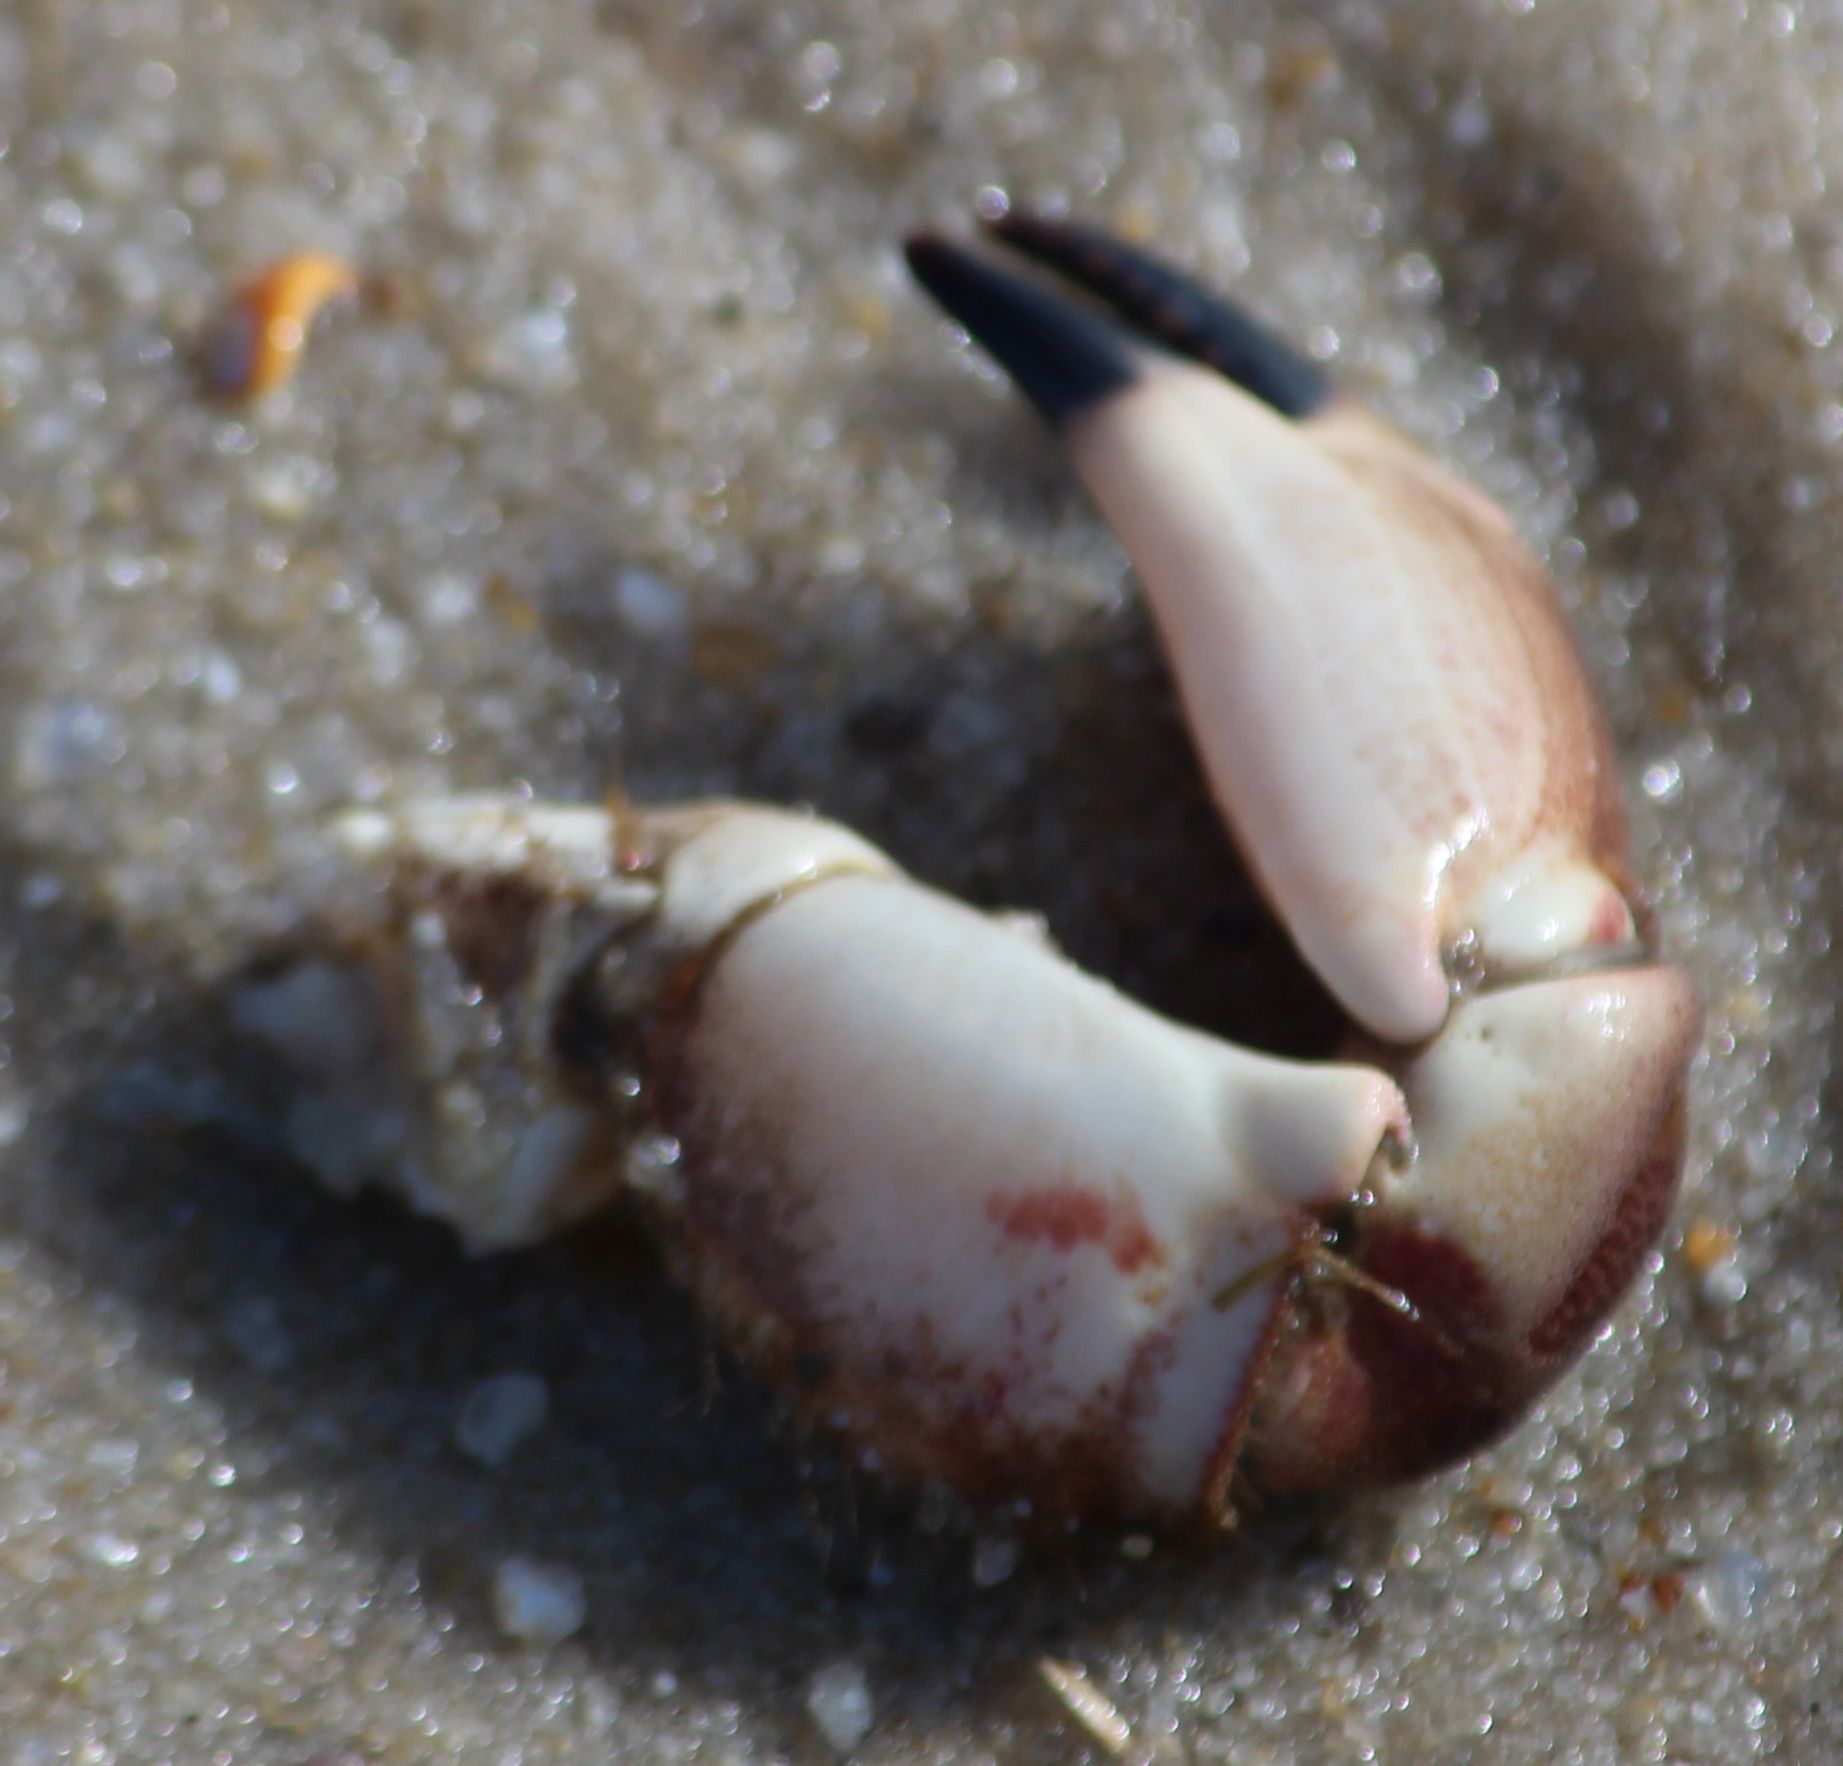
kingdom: Animalia
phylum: Arthropoda
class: Malacostraca
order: Decapoda
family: Cancridae
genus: Cancer
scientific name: Cancer pagurus
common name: Edible crab
